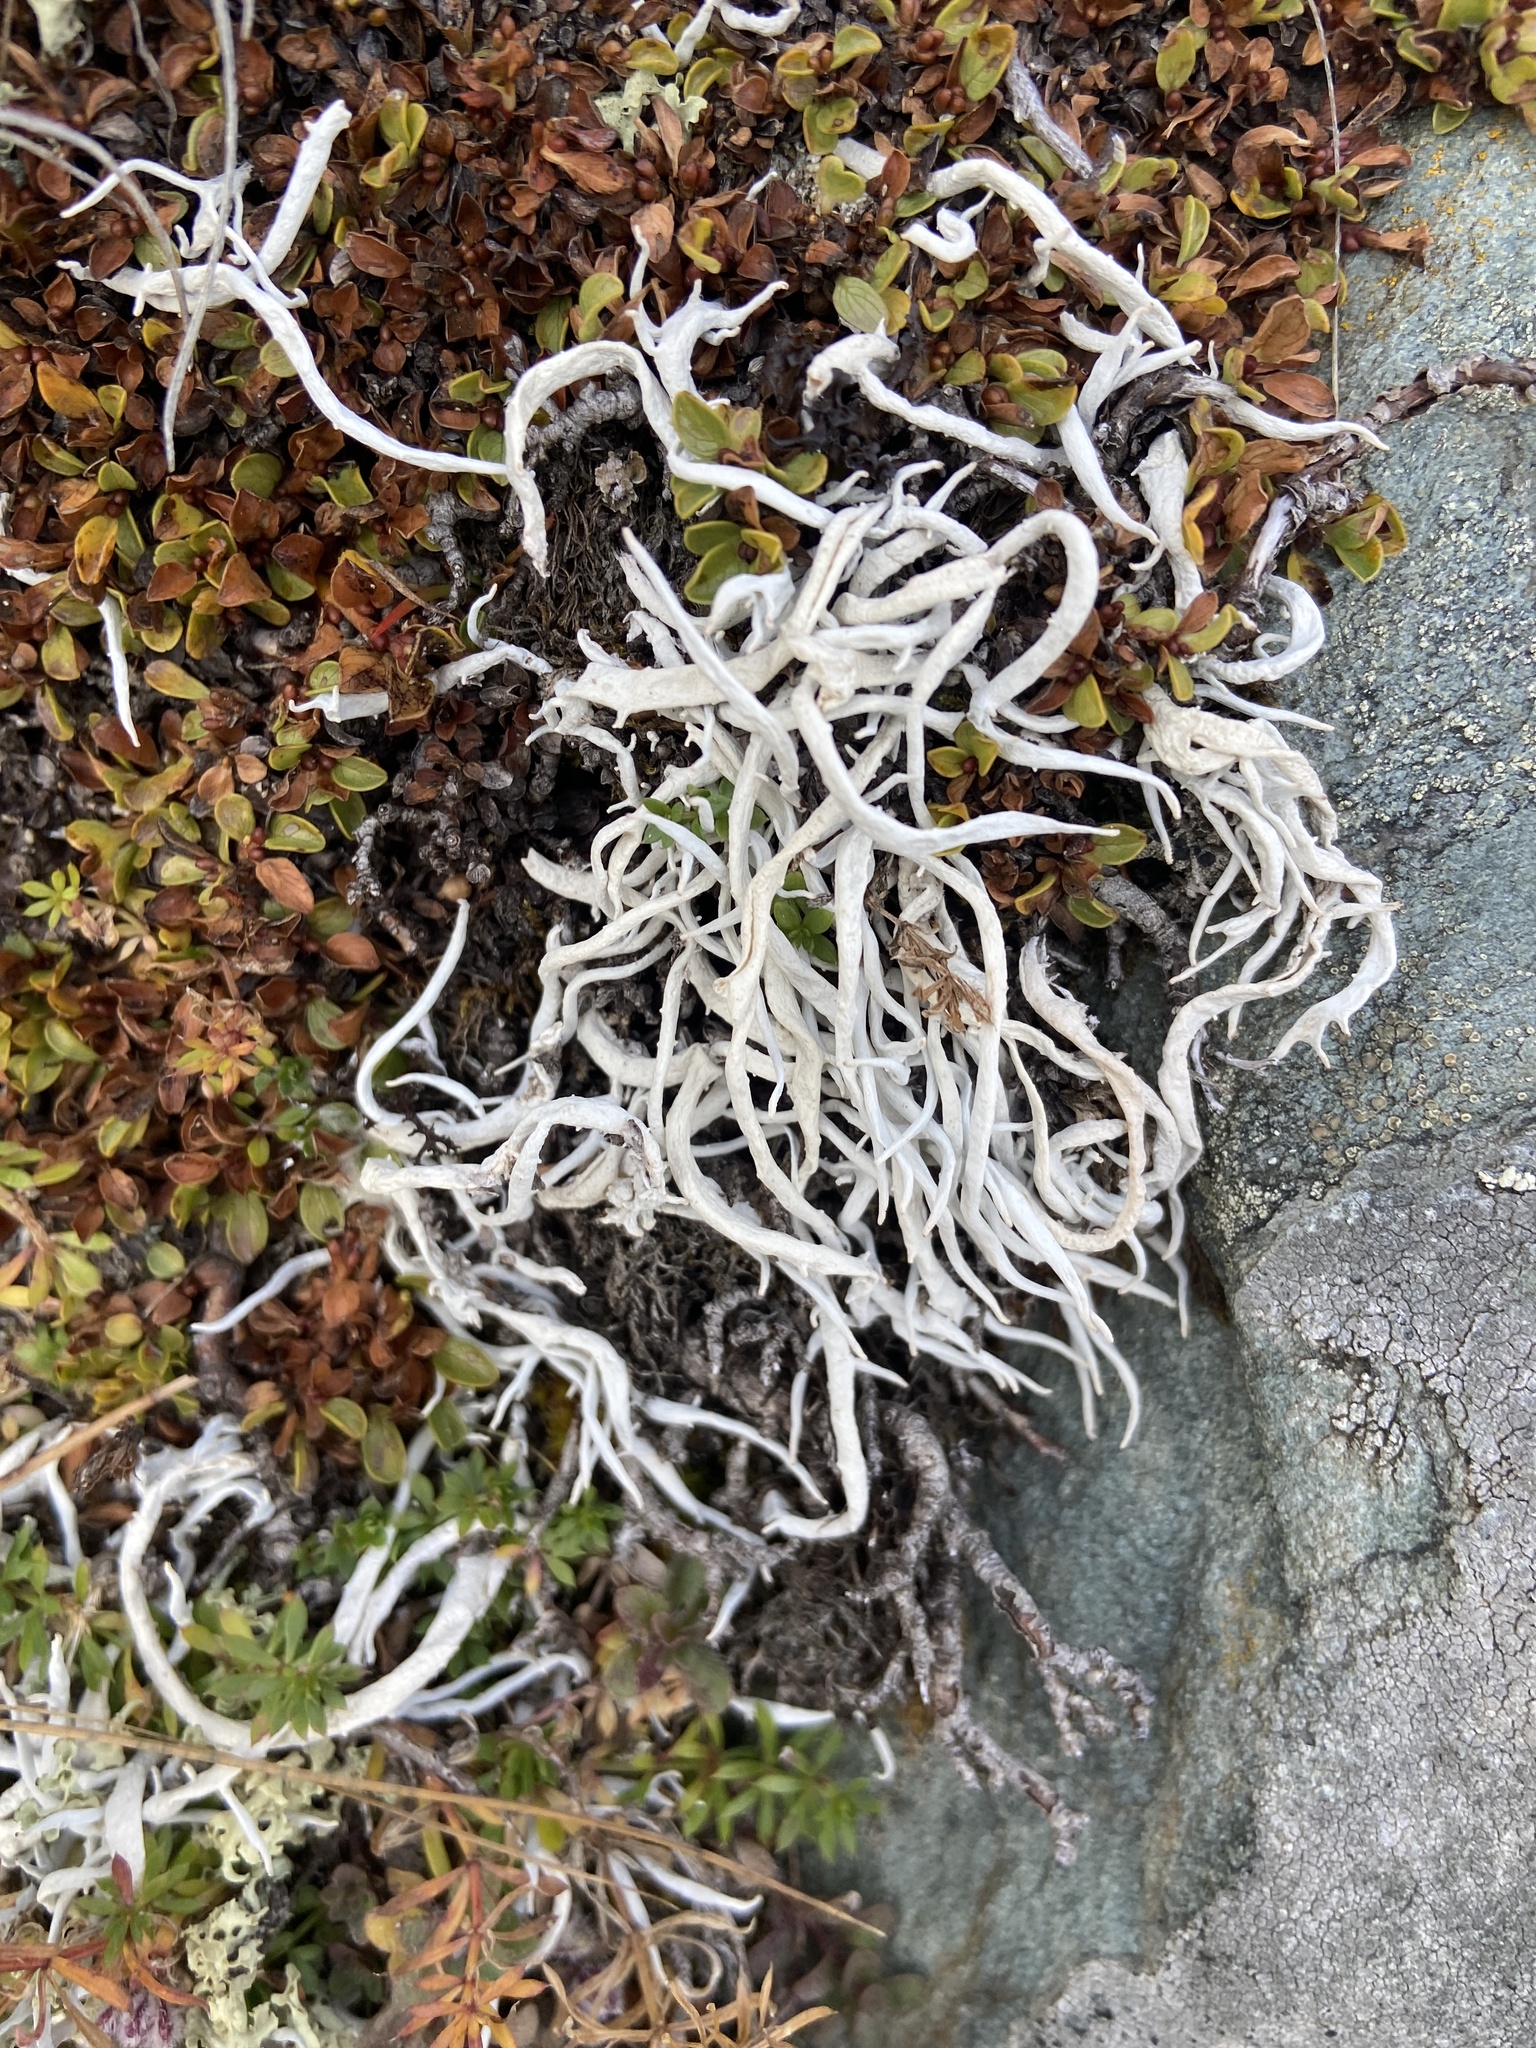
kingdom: Fungi
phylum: Ascomycota
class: Lecanoromycetes
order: Pertusariales
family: Icmadophilaceae
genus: Thamnolia
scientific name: Thamnolia vermicularis
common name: Whiteworm lichen
